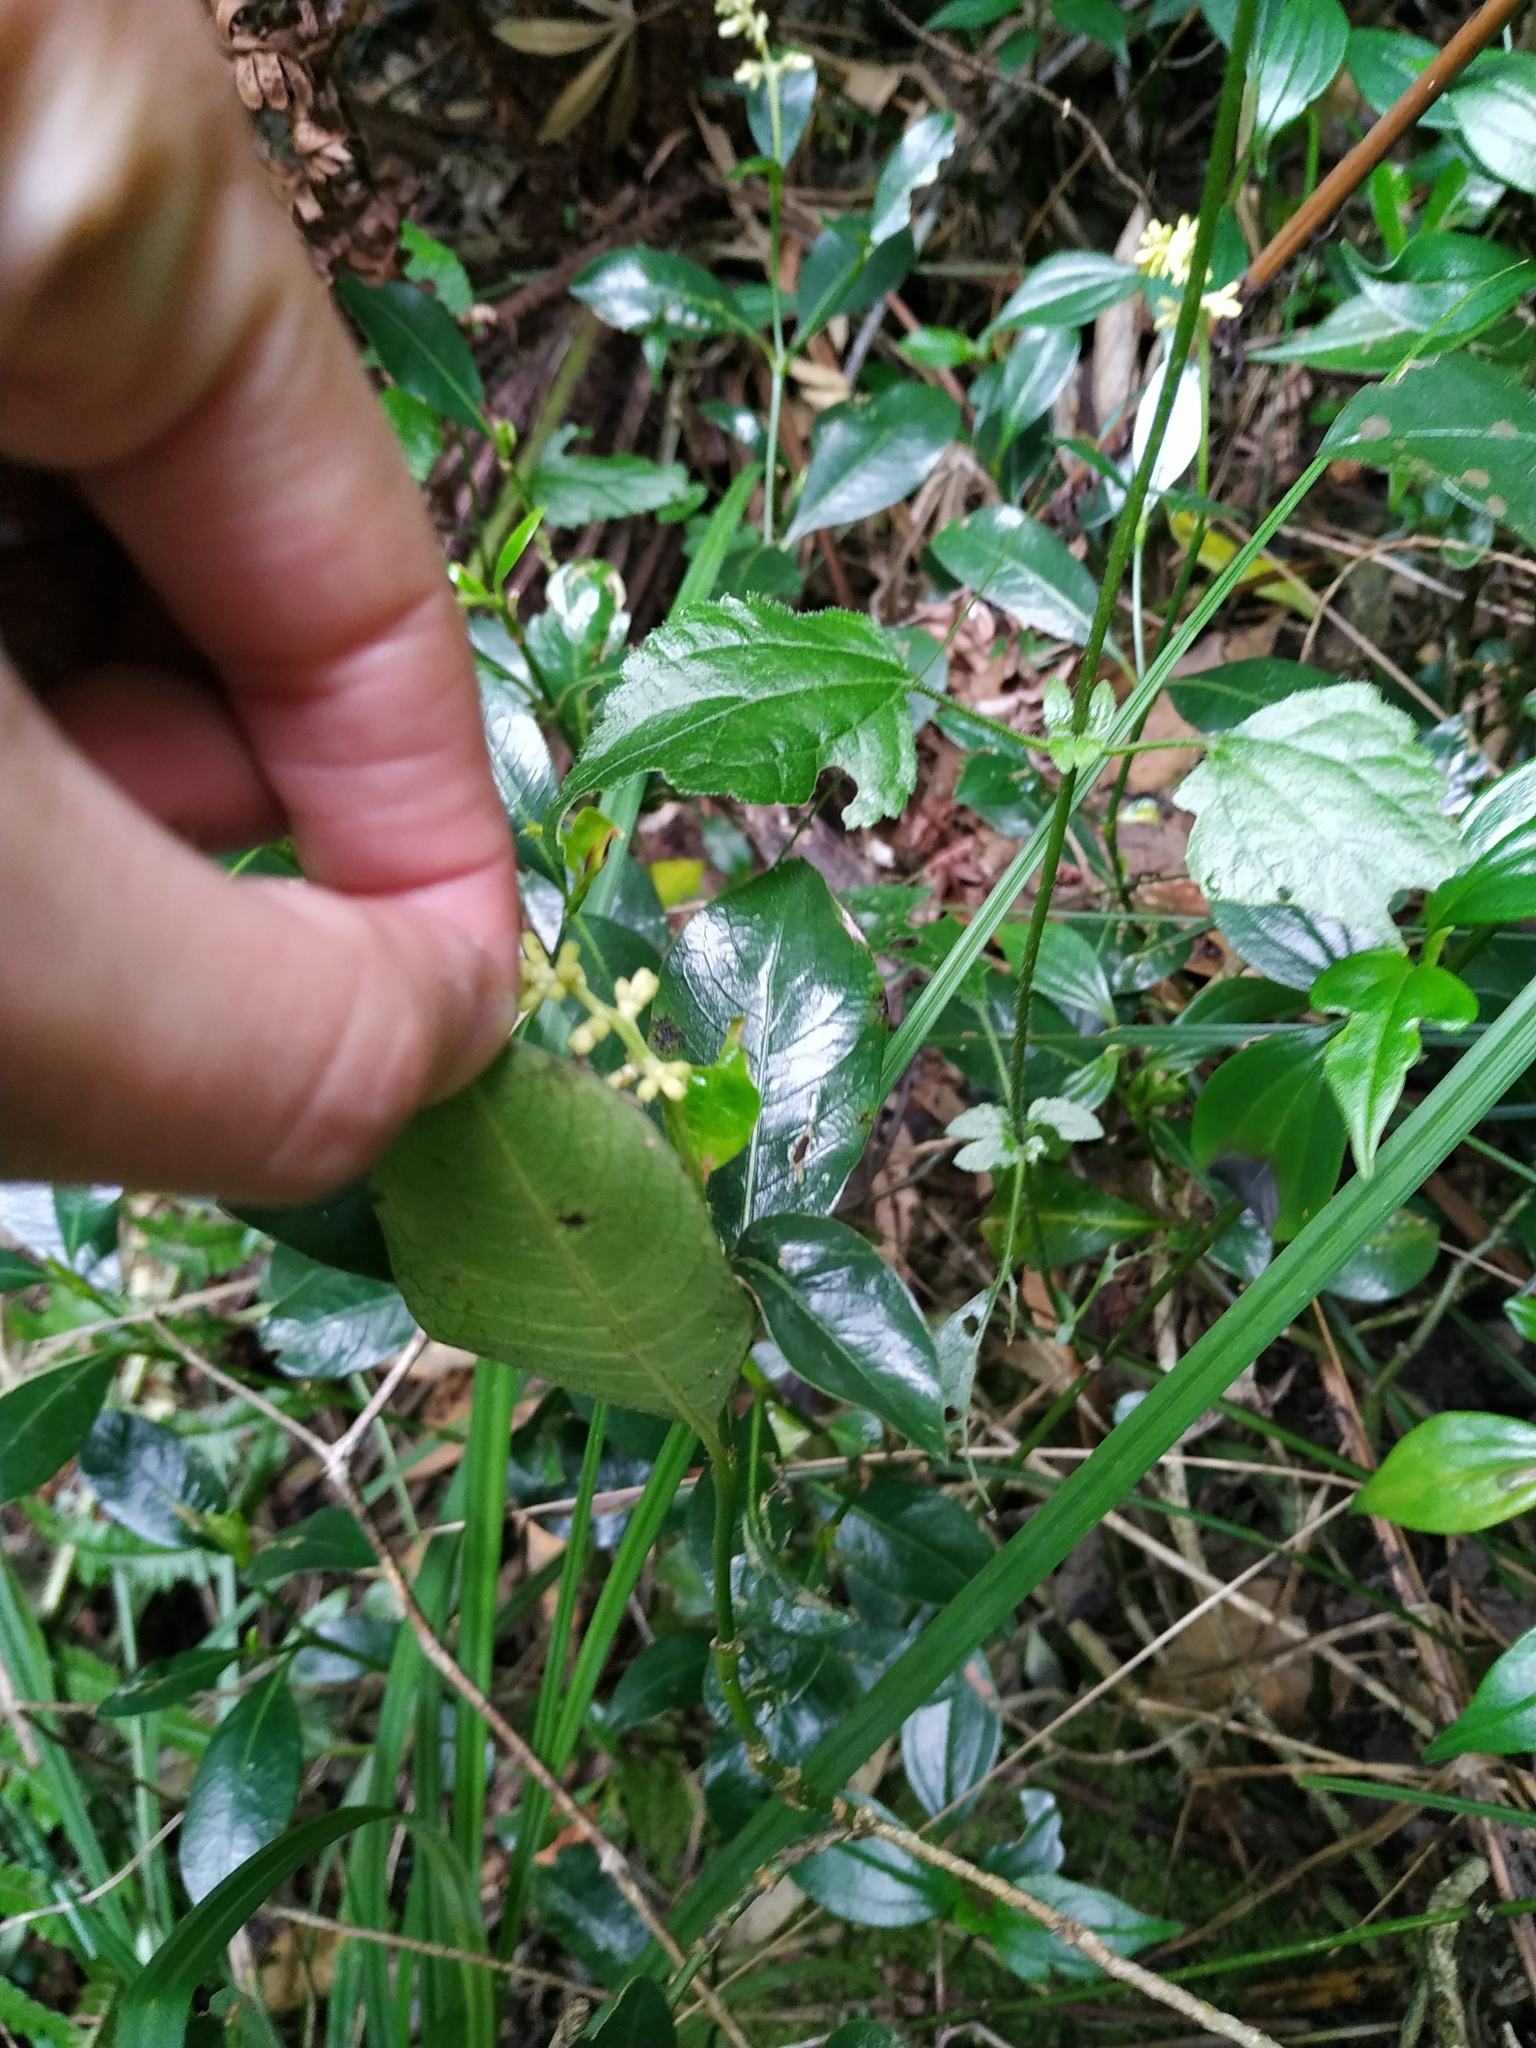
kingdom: Plantae
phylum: Tracheophyta
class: Magnoliopsida
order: Gentianales
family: Rubiaceae
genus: Palicourea
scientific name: Palicourea boqueronensis
